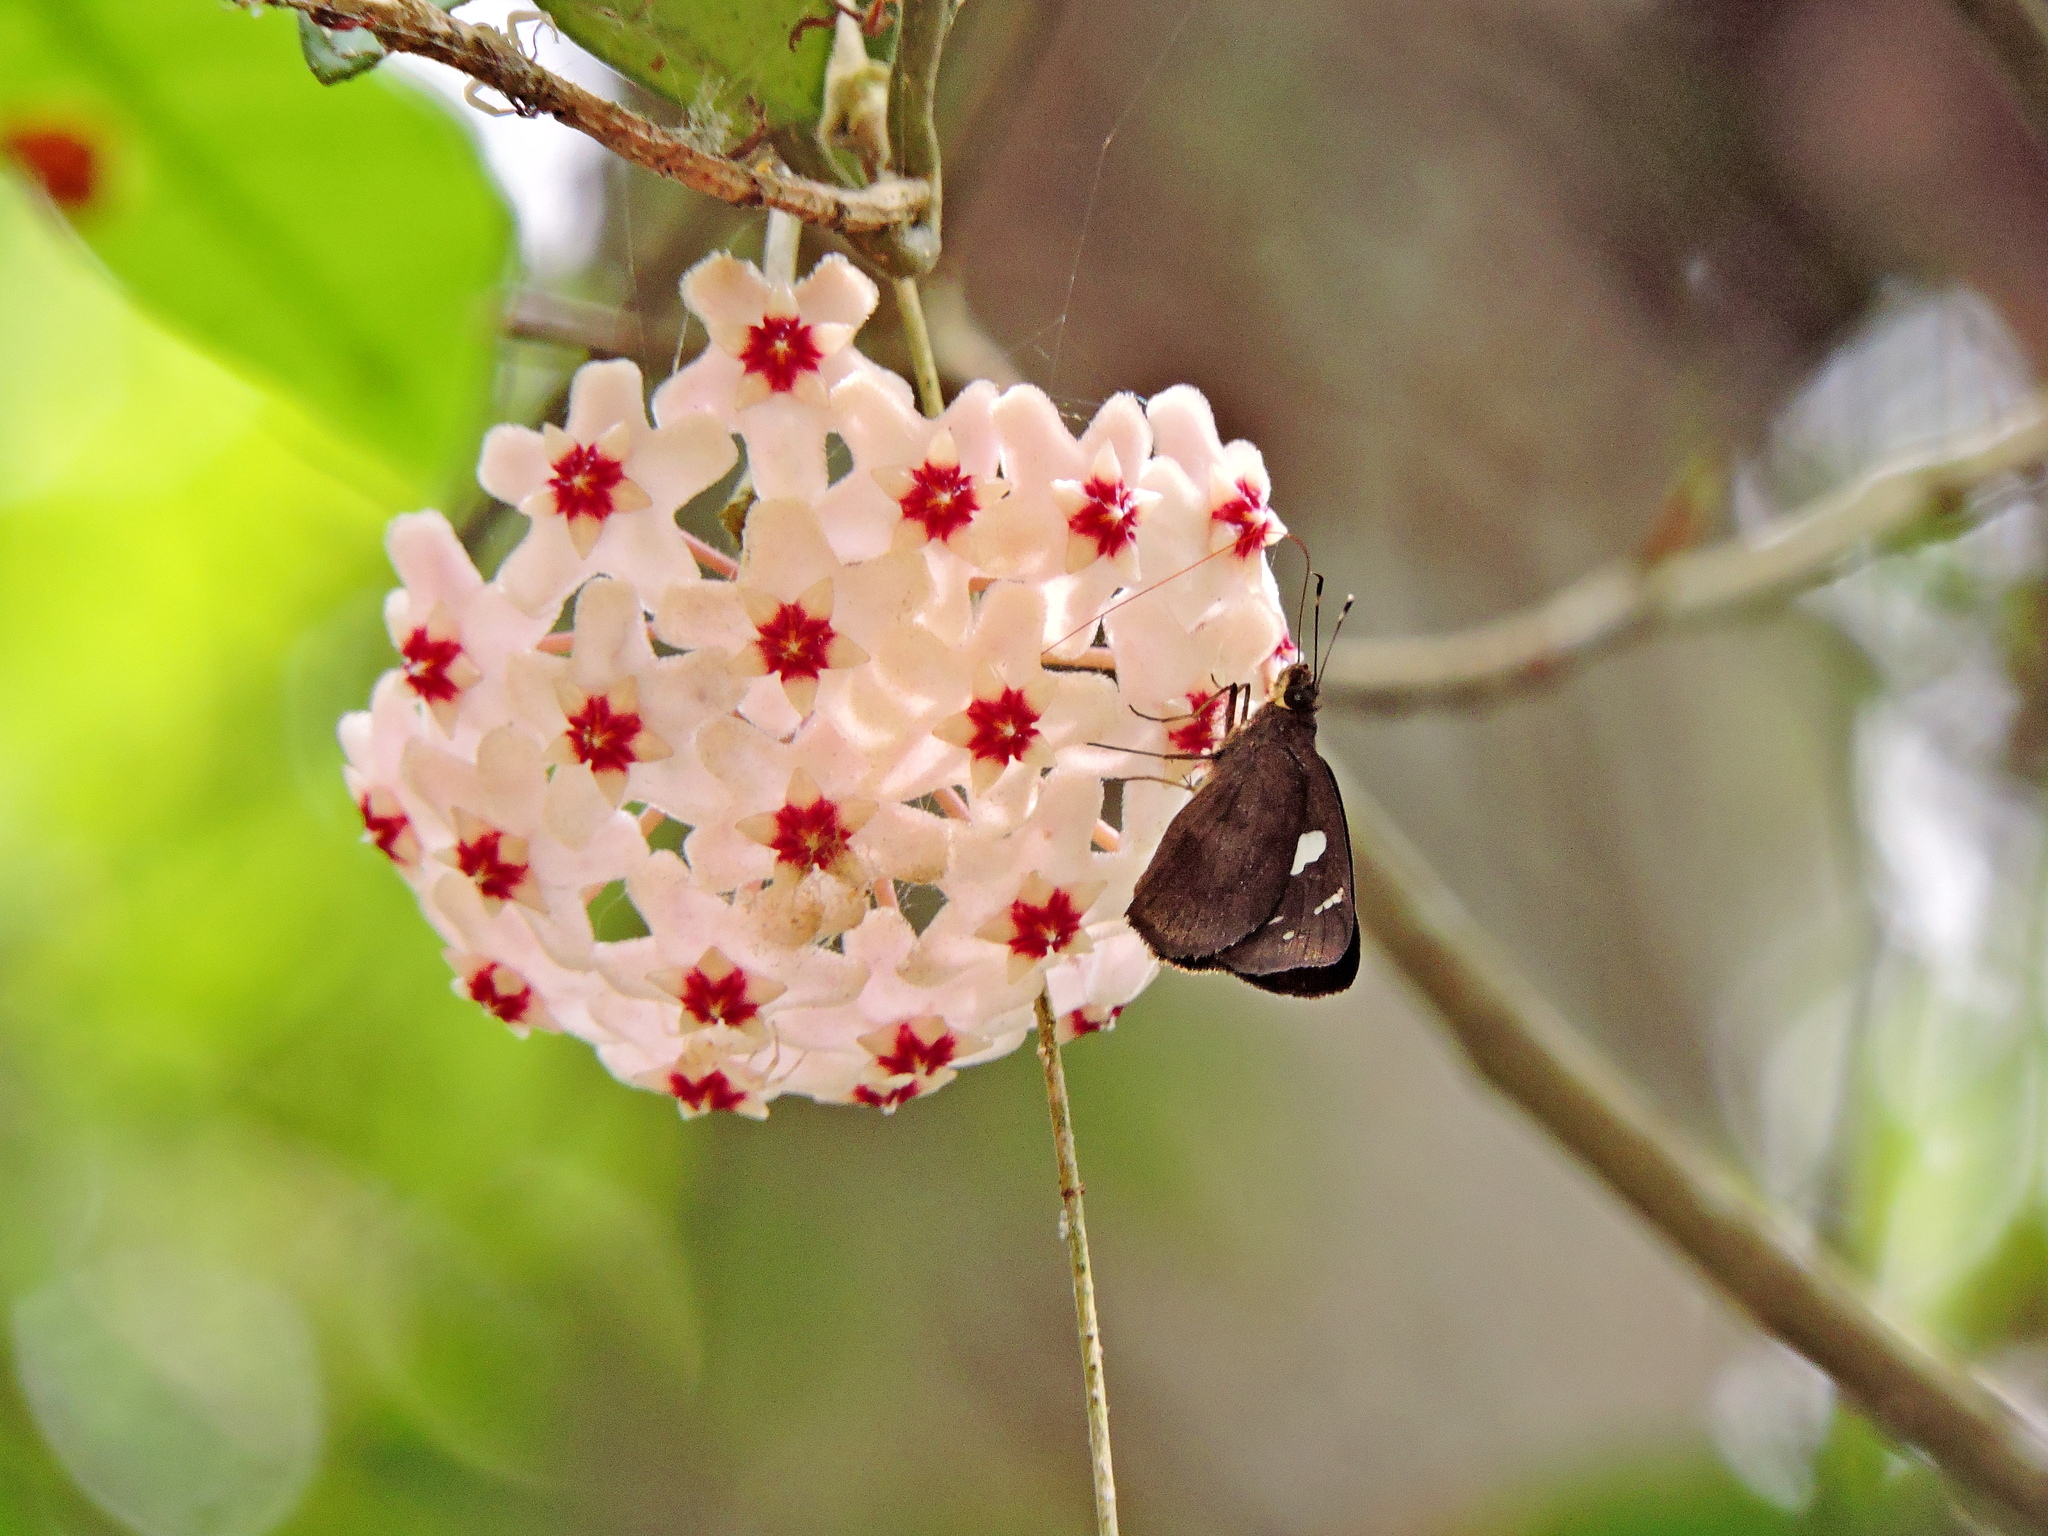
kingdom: Animalia
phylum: Arthropoda
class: Insecta
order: Lepidoptera
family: Hesperiidae
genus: Notocrypta
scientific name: Notocrypta curvifascia
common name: Restricted demon
